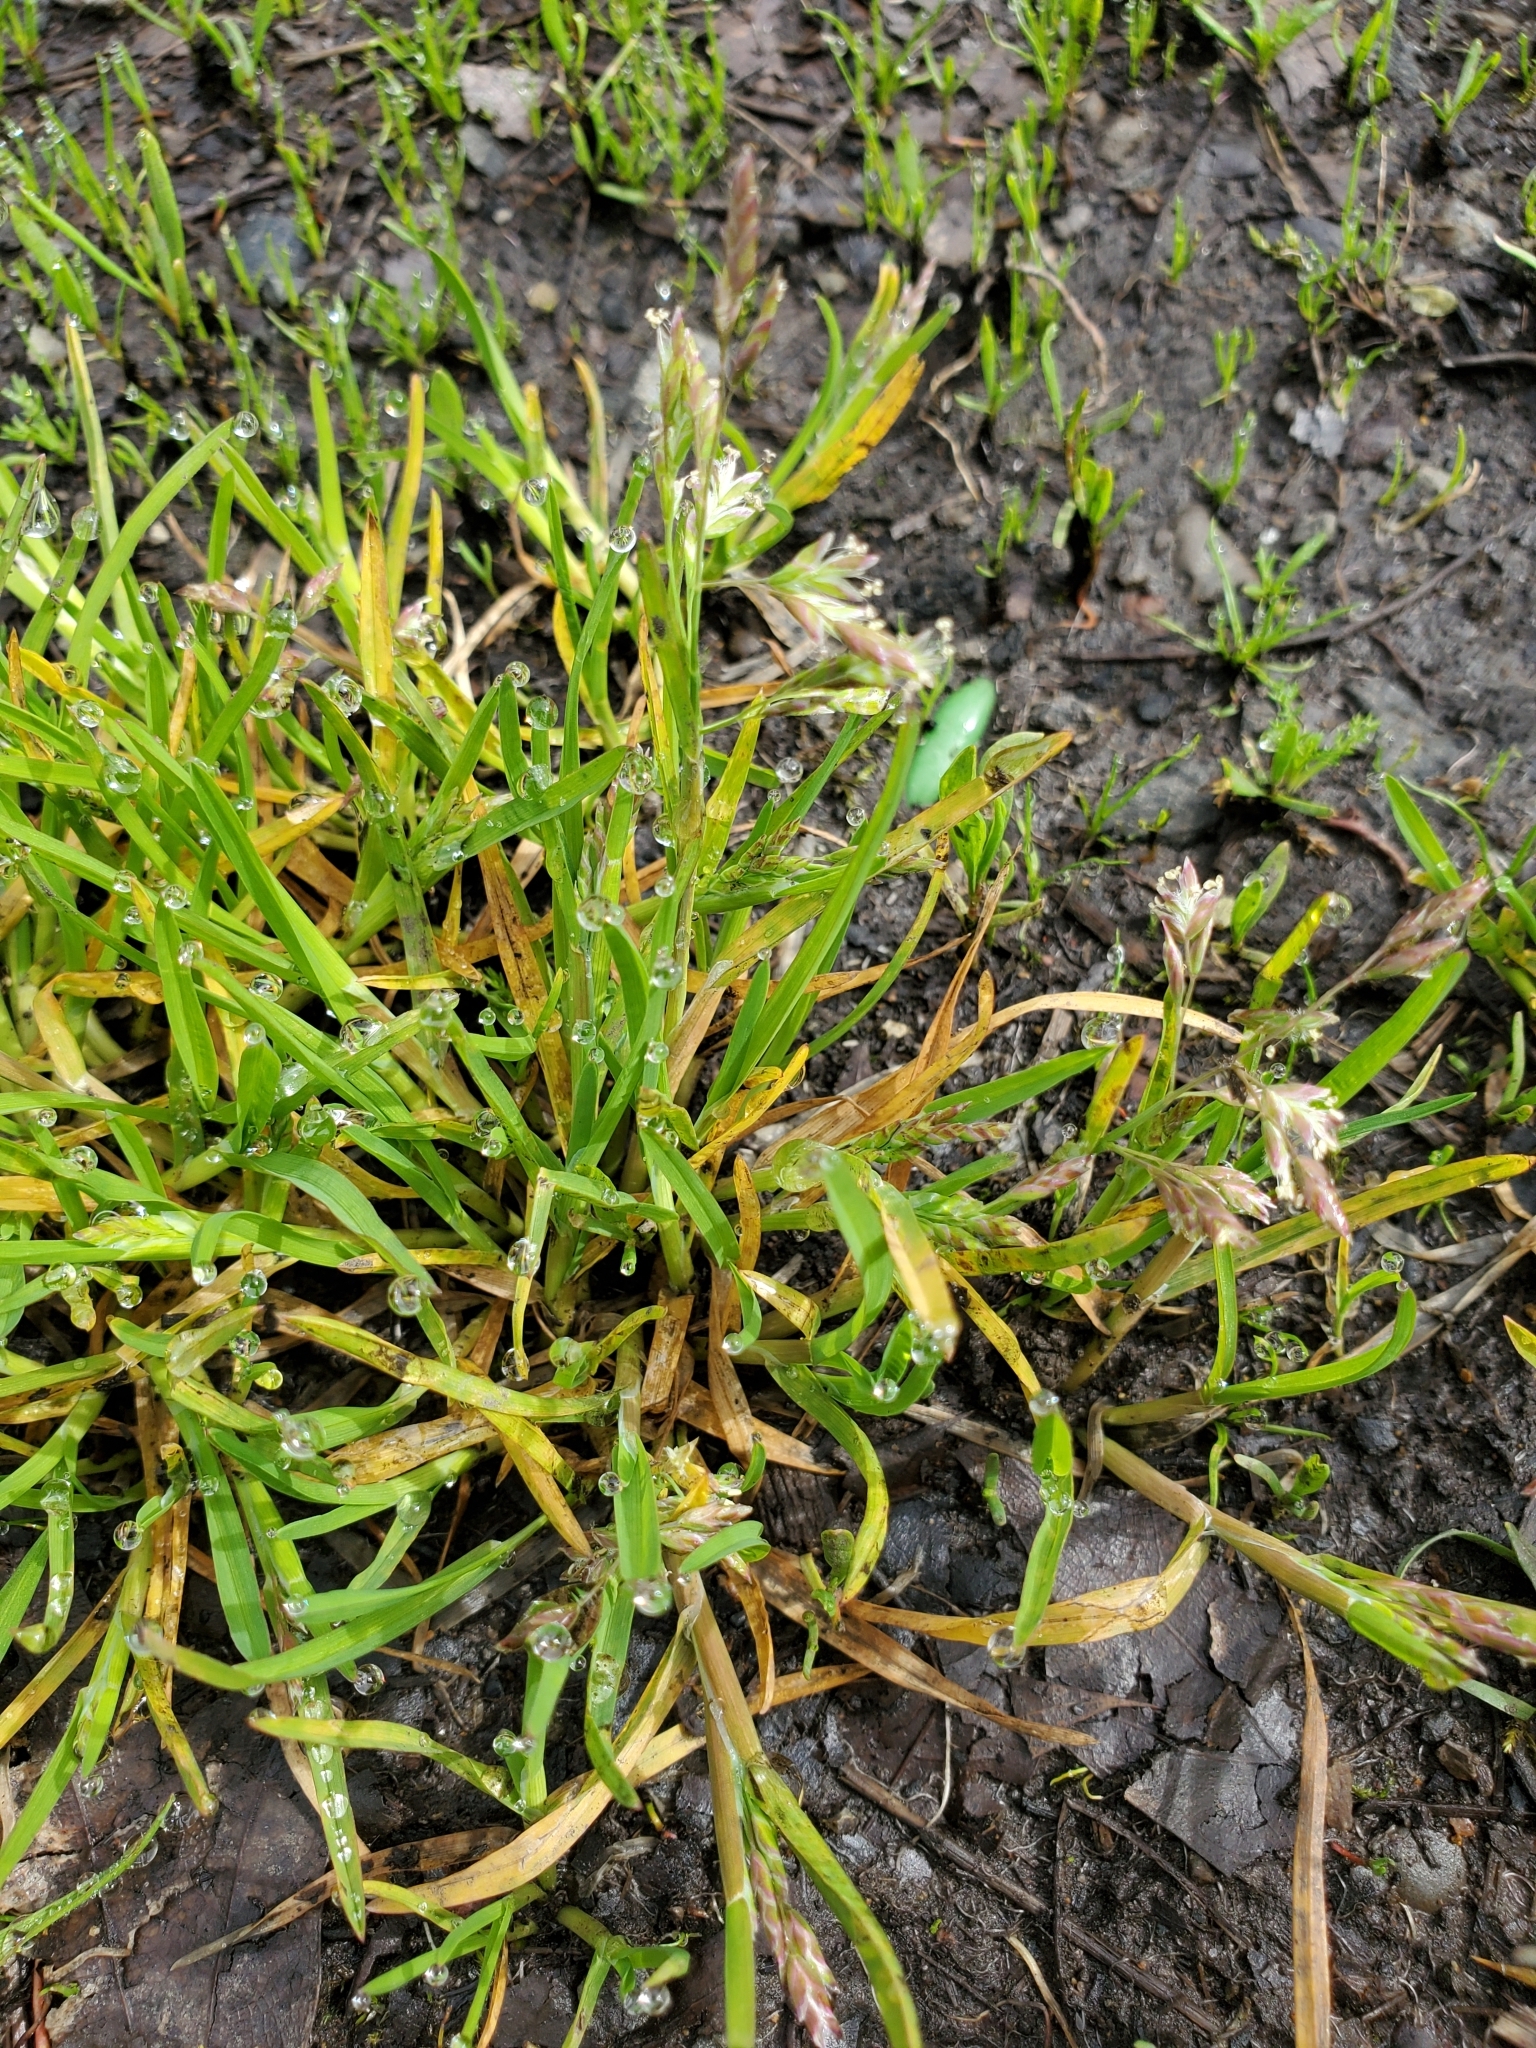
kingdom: Plantae
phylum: Tracheophyta
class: Liliopsida
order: Poales
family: Poaceae
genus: Poa
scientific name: Poa annua
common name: Annual bluegrass
